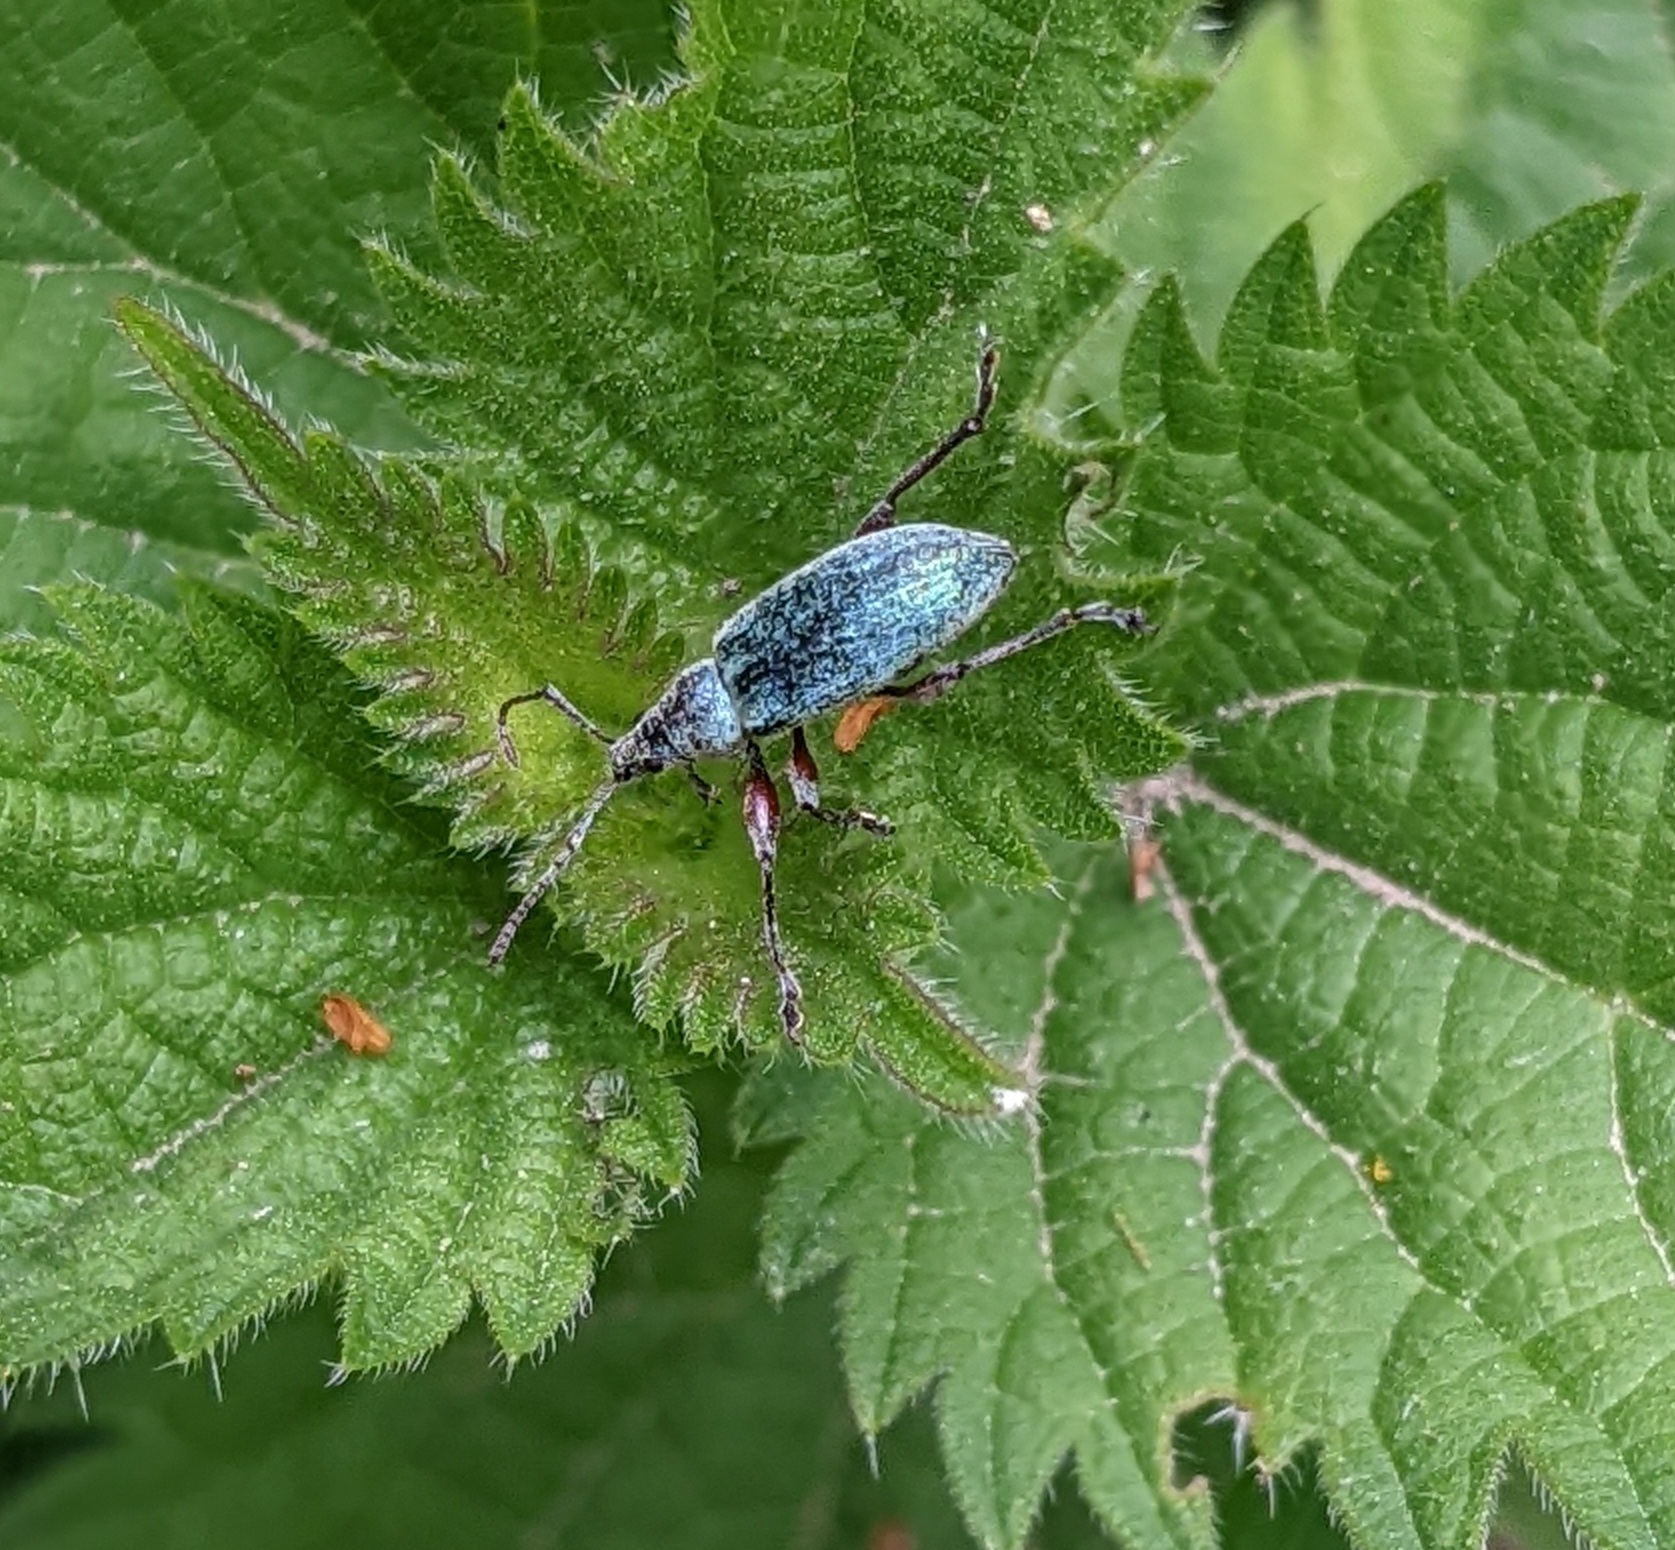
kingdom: Animalia
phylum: Arthropoda
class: Insecta
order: Coleoptera
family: Curculionidae
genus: Phyllobius
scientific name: Phyllobius pomaceus
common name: Green nettle weevil
